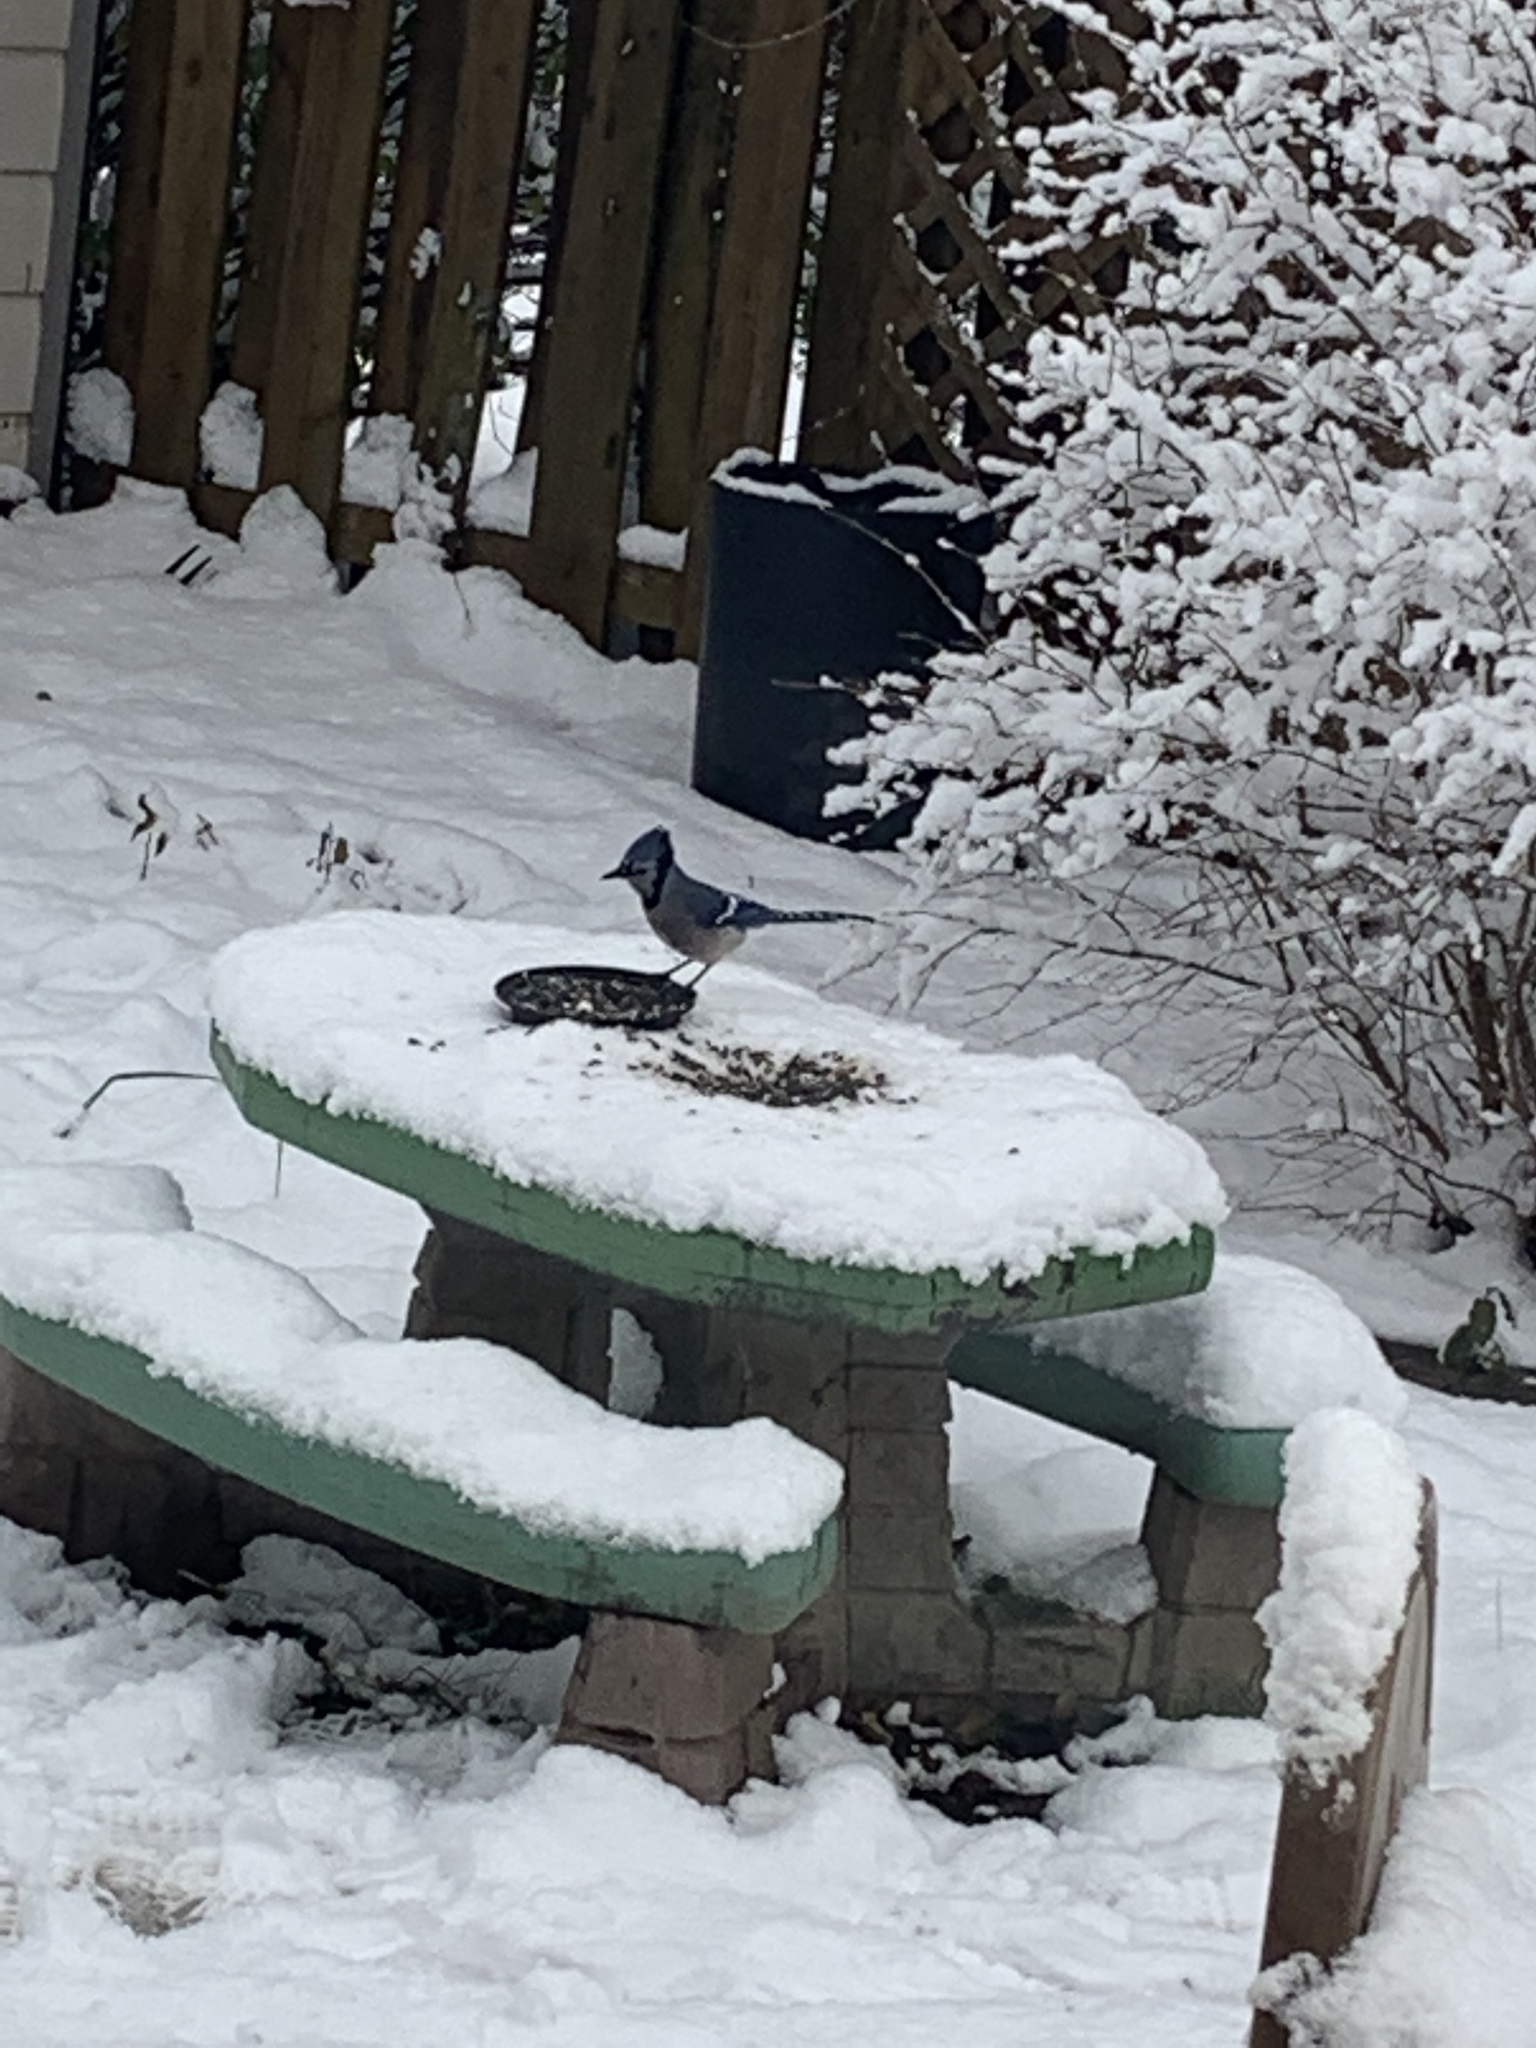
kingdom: Animalia
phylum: Chordata
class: Aves
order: Passeriformes
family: Corvidae
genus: Cyanocitta
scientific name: Cyanocitta cristata
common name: Blue jay
